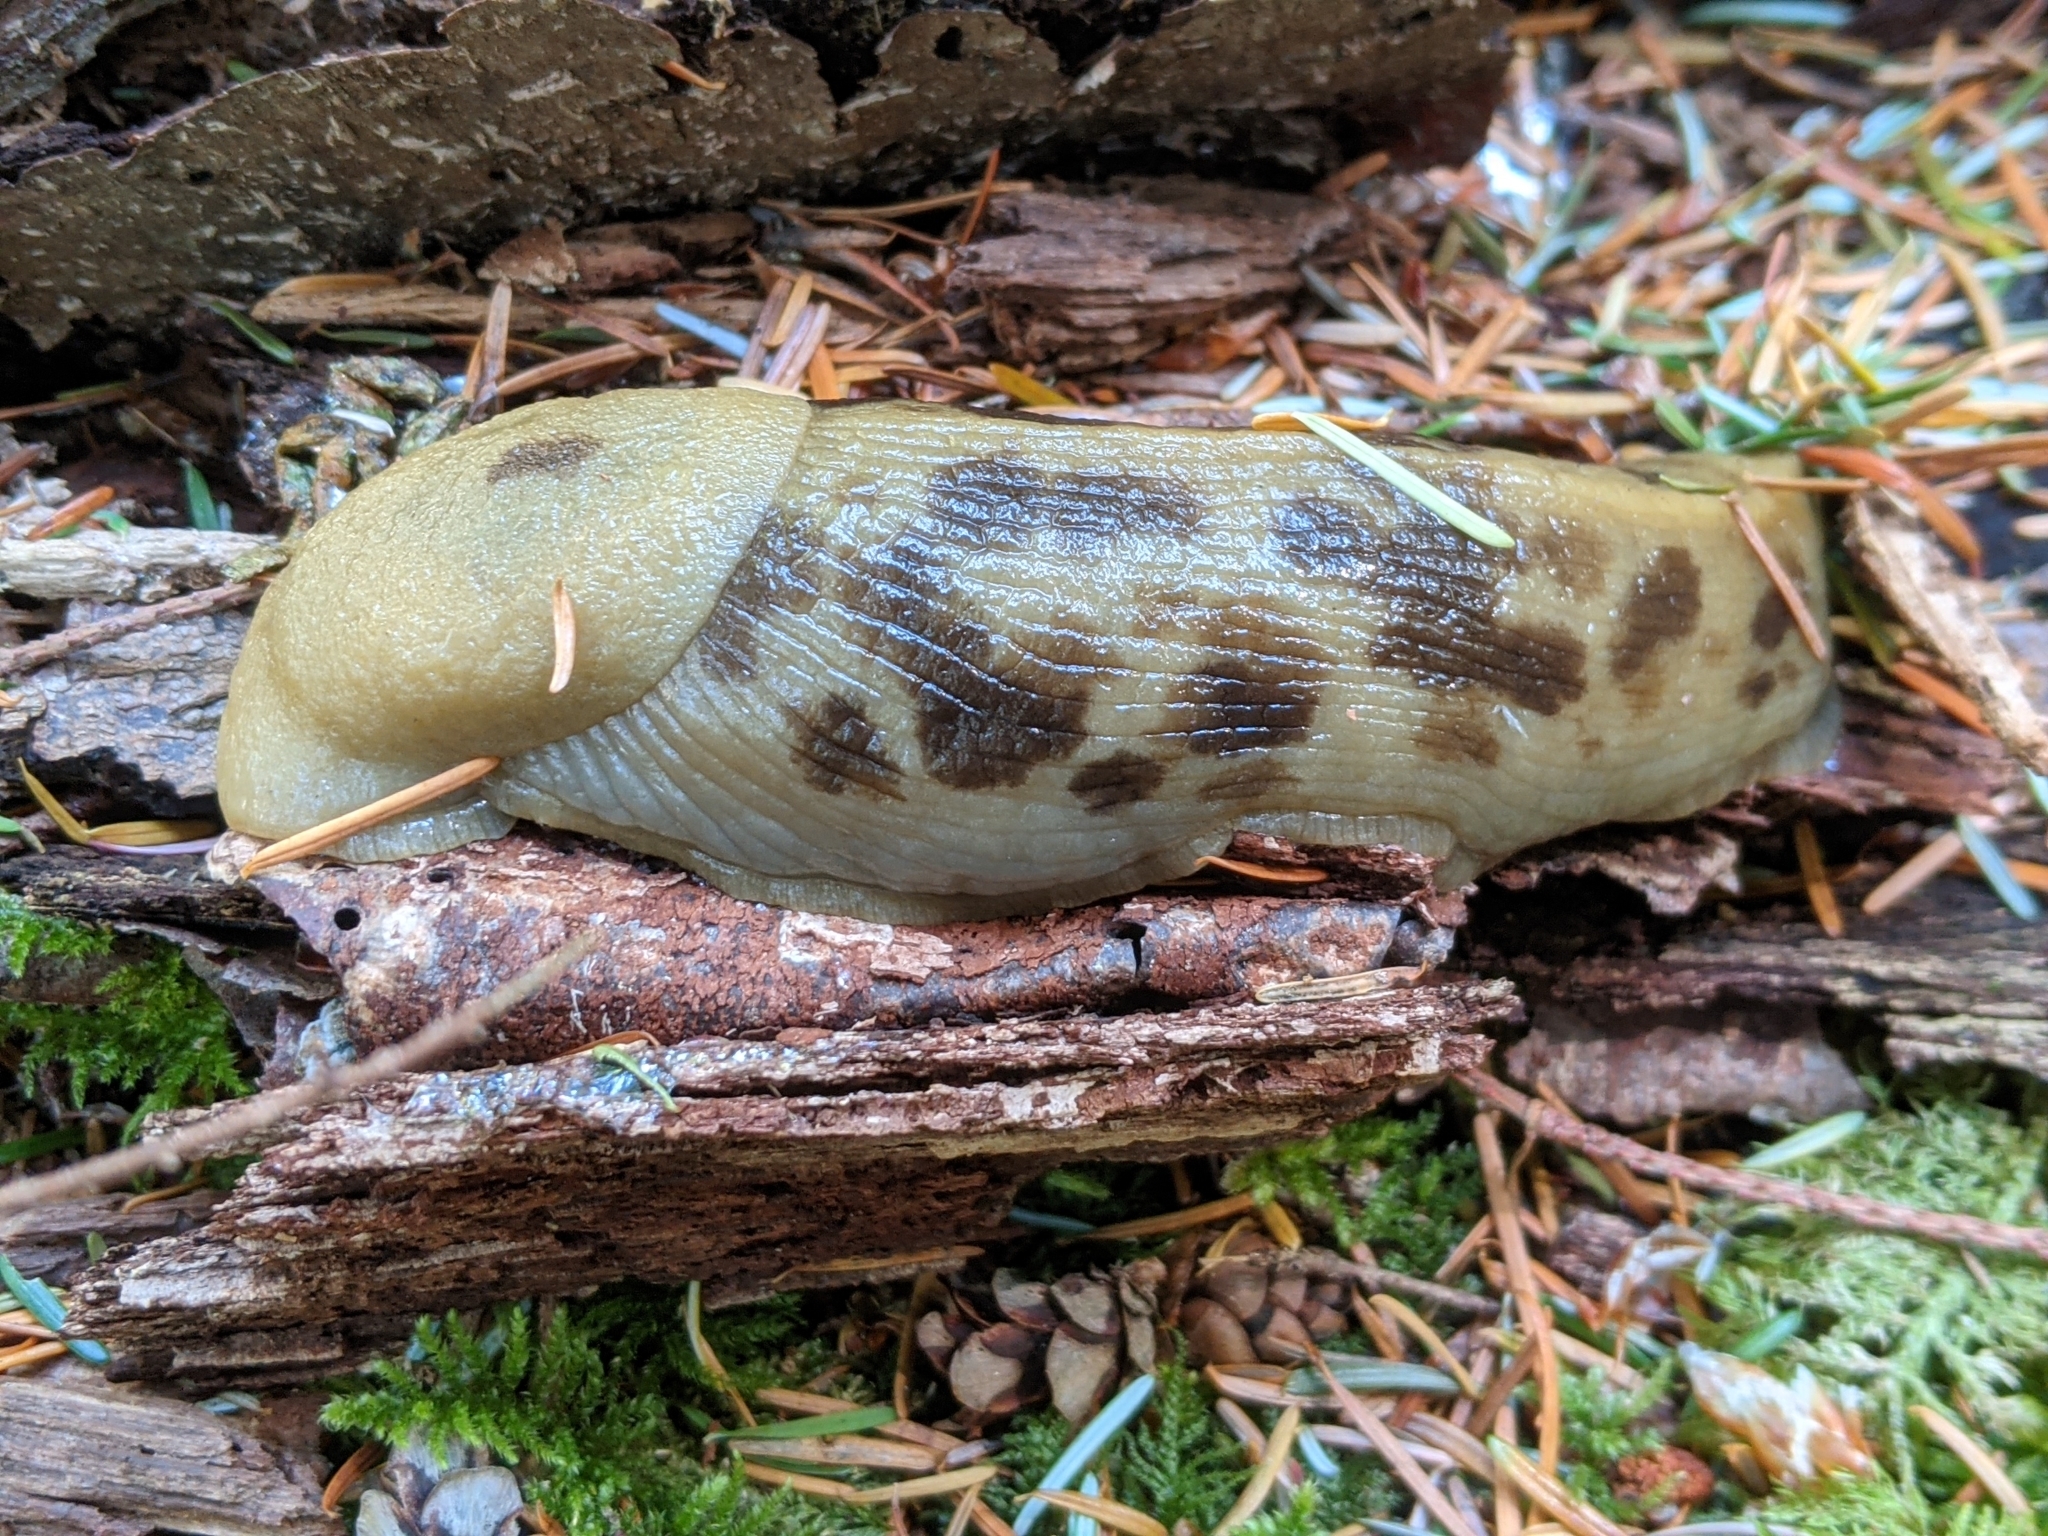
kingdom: Animalia
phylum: Mollusca
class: Gastropoda
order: Stylommatophora
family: Ariolimacidae
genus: Ariolimax
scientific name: Ariolimax columbianus
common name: Pacific banana slug
